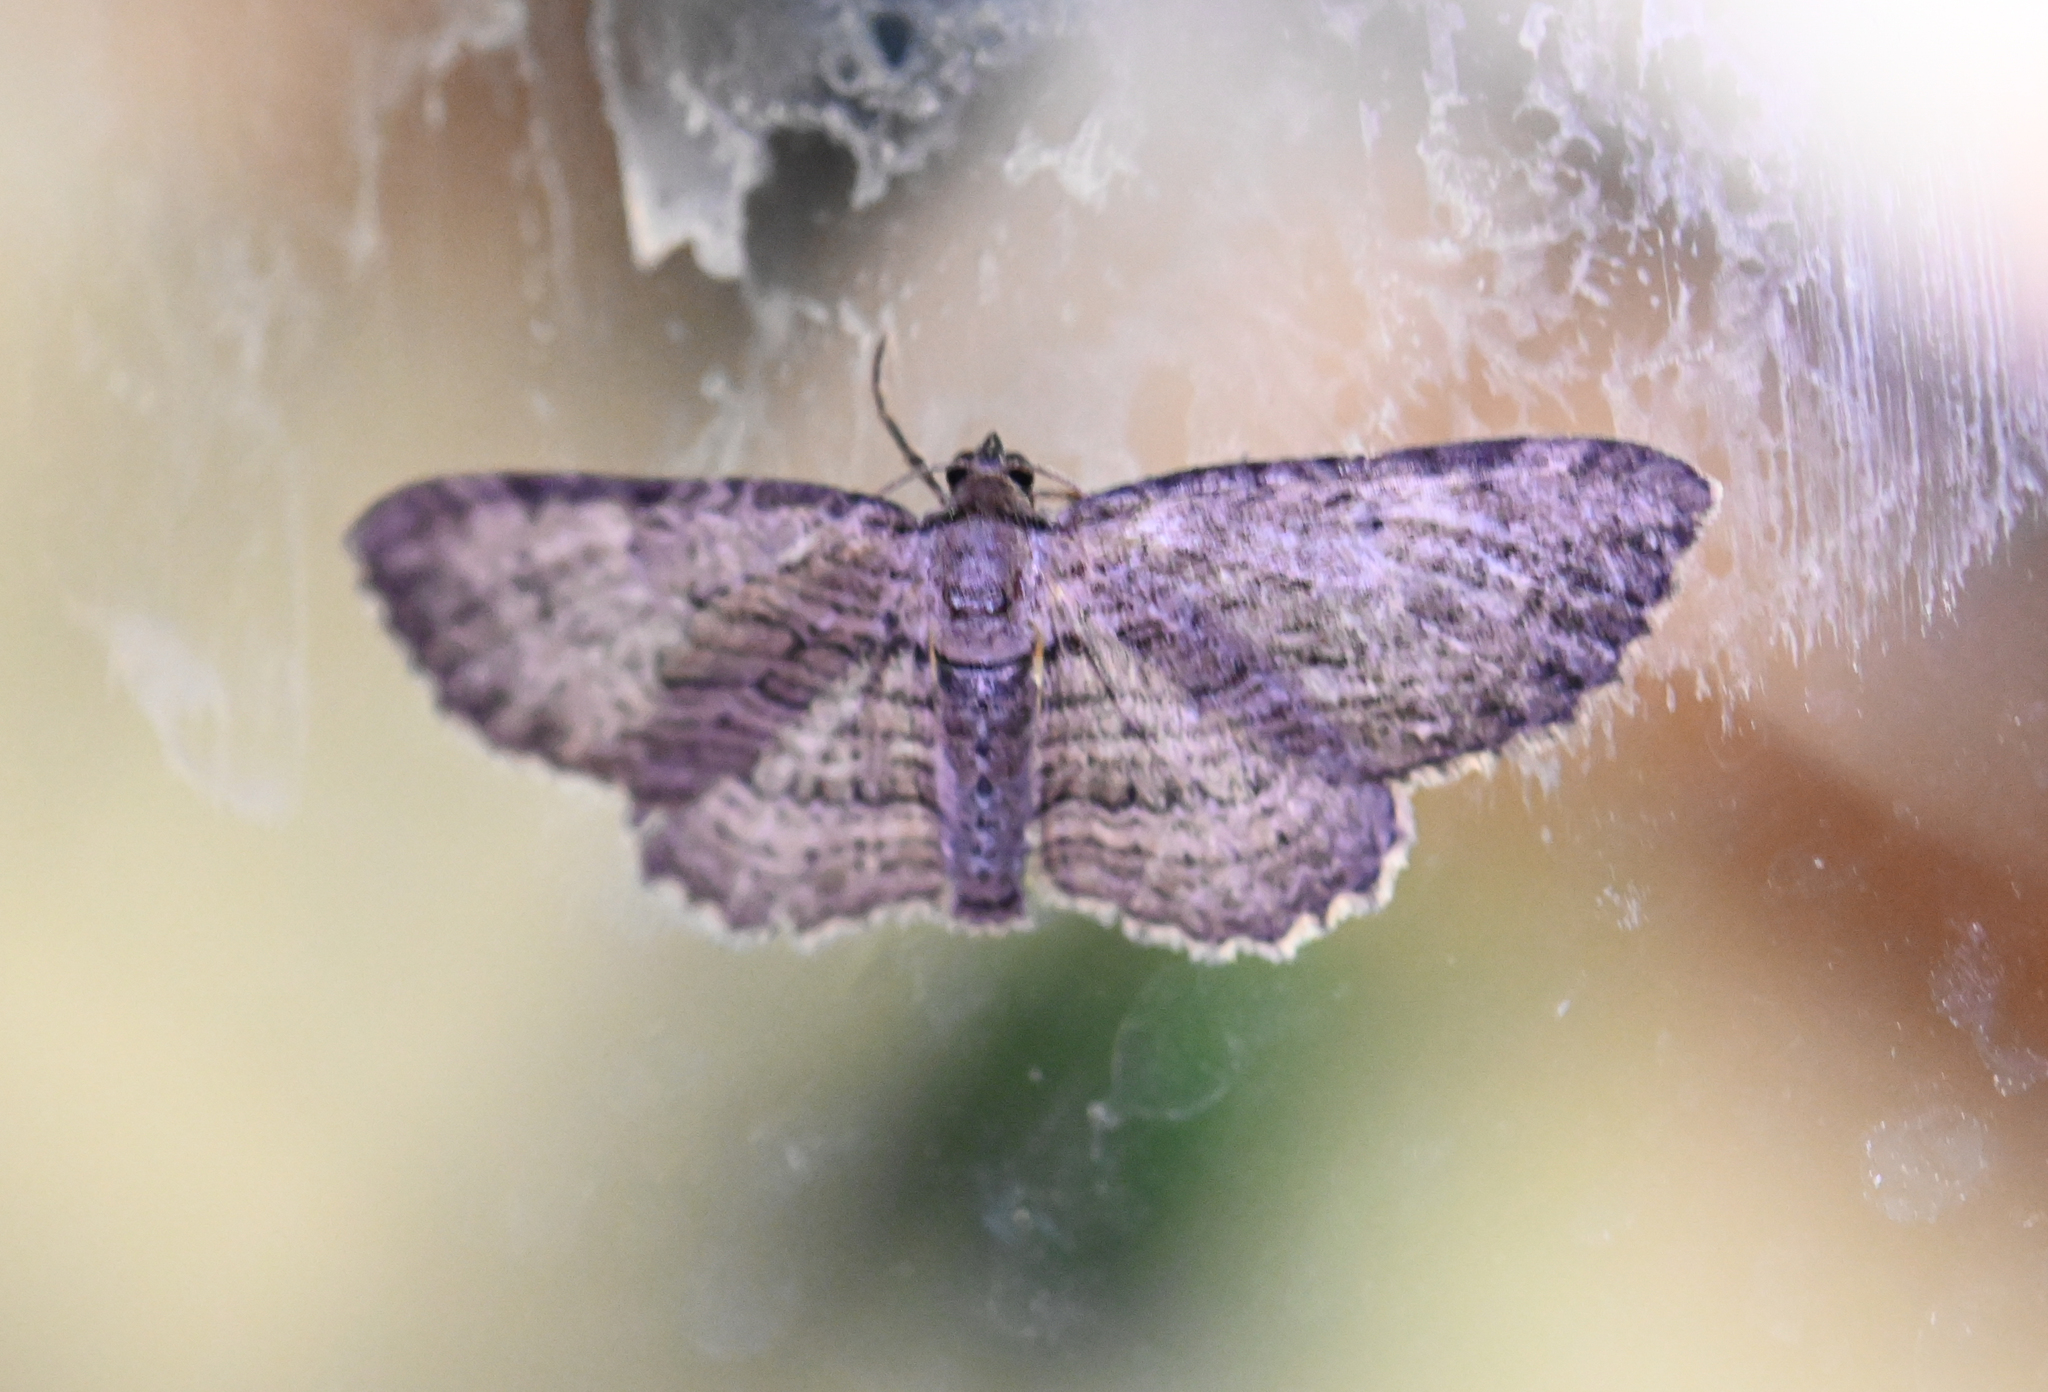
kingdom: Animalia
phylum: Arthropoda
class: Insecta
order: Lepidoptera
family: Geometridae
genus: Horisme
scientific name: Horisme intestinata
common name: Brown bark carpet
